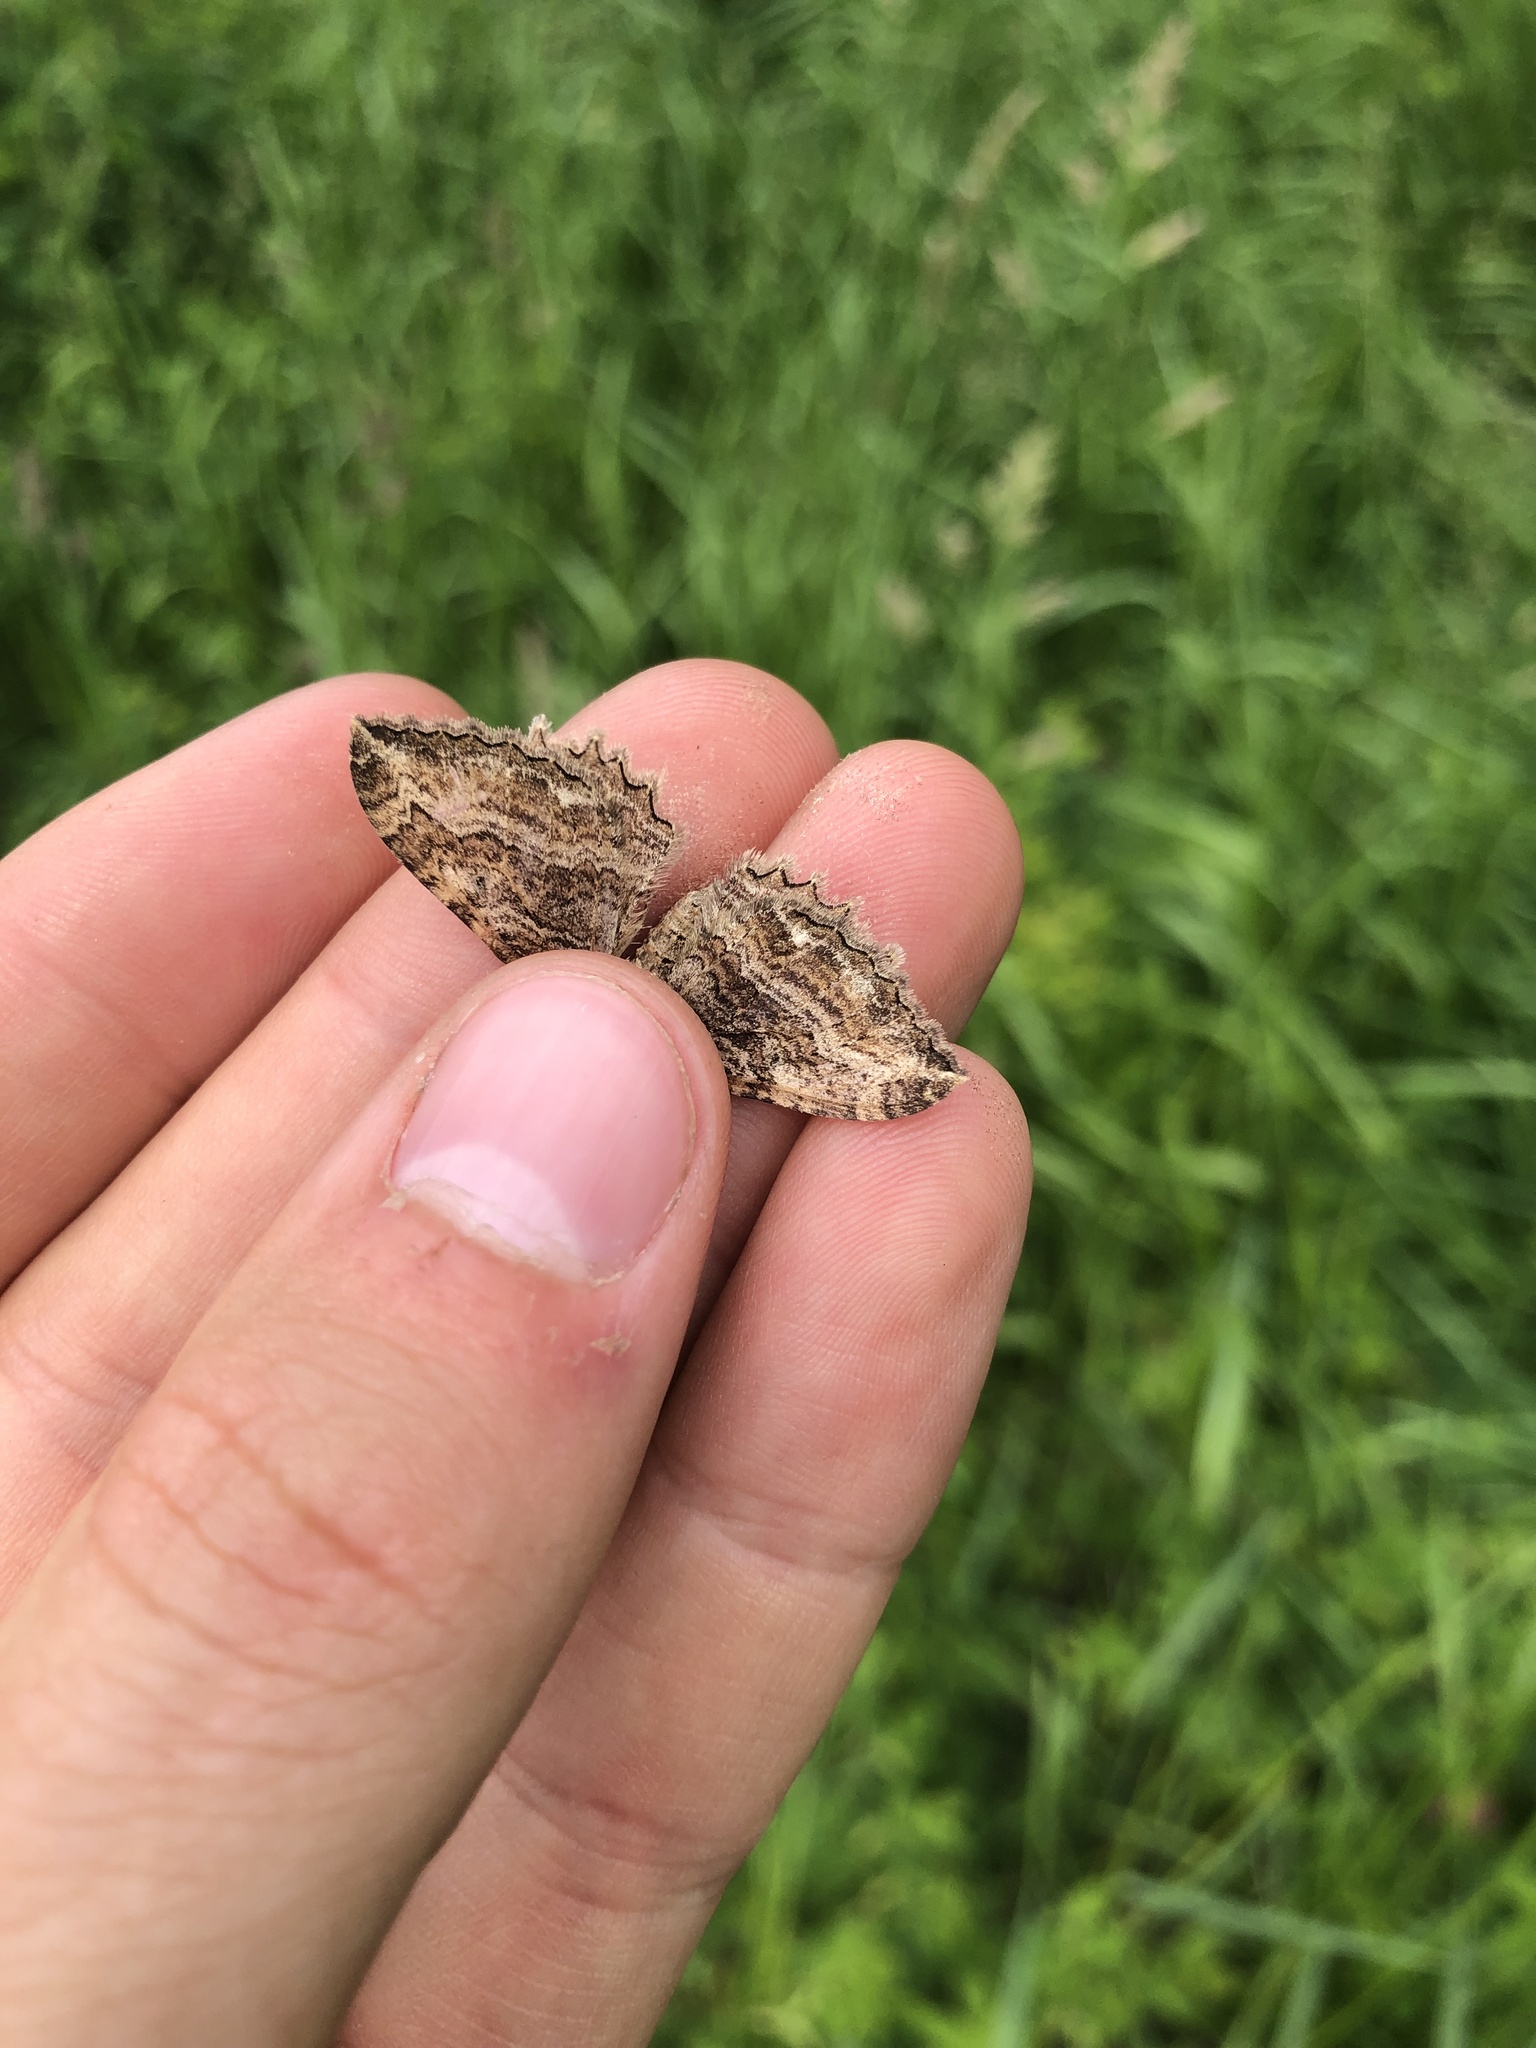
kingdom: Animalia
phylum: Arthropoda
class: Insecta
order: Lepidoptera
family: Geometridae
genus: Rheumaptera
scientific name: Rheumaptera
